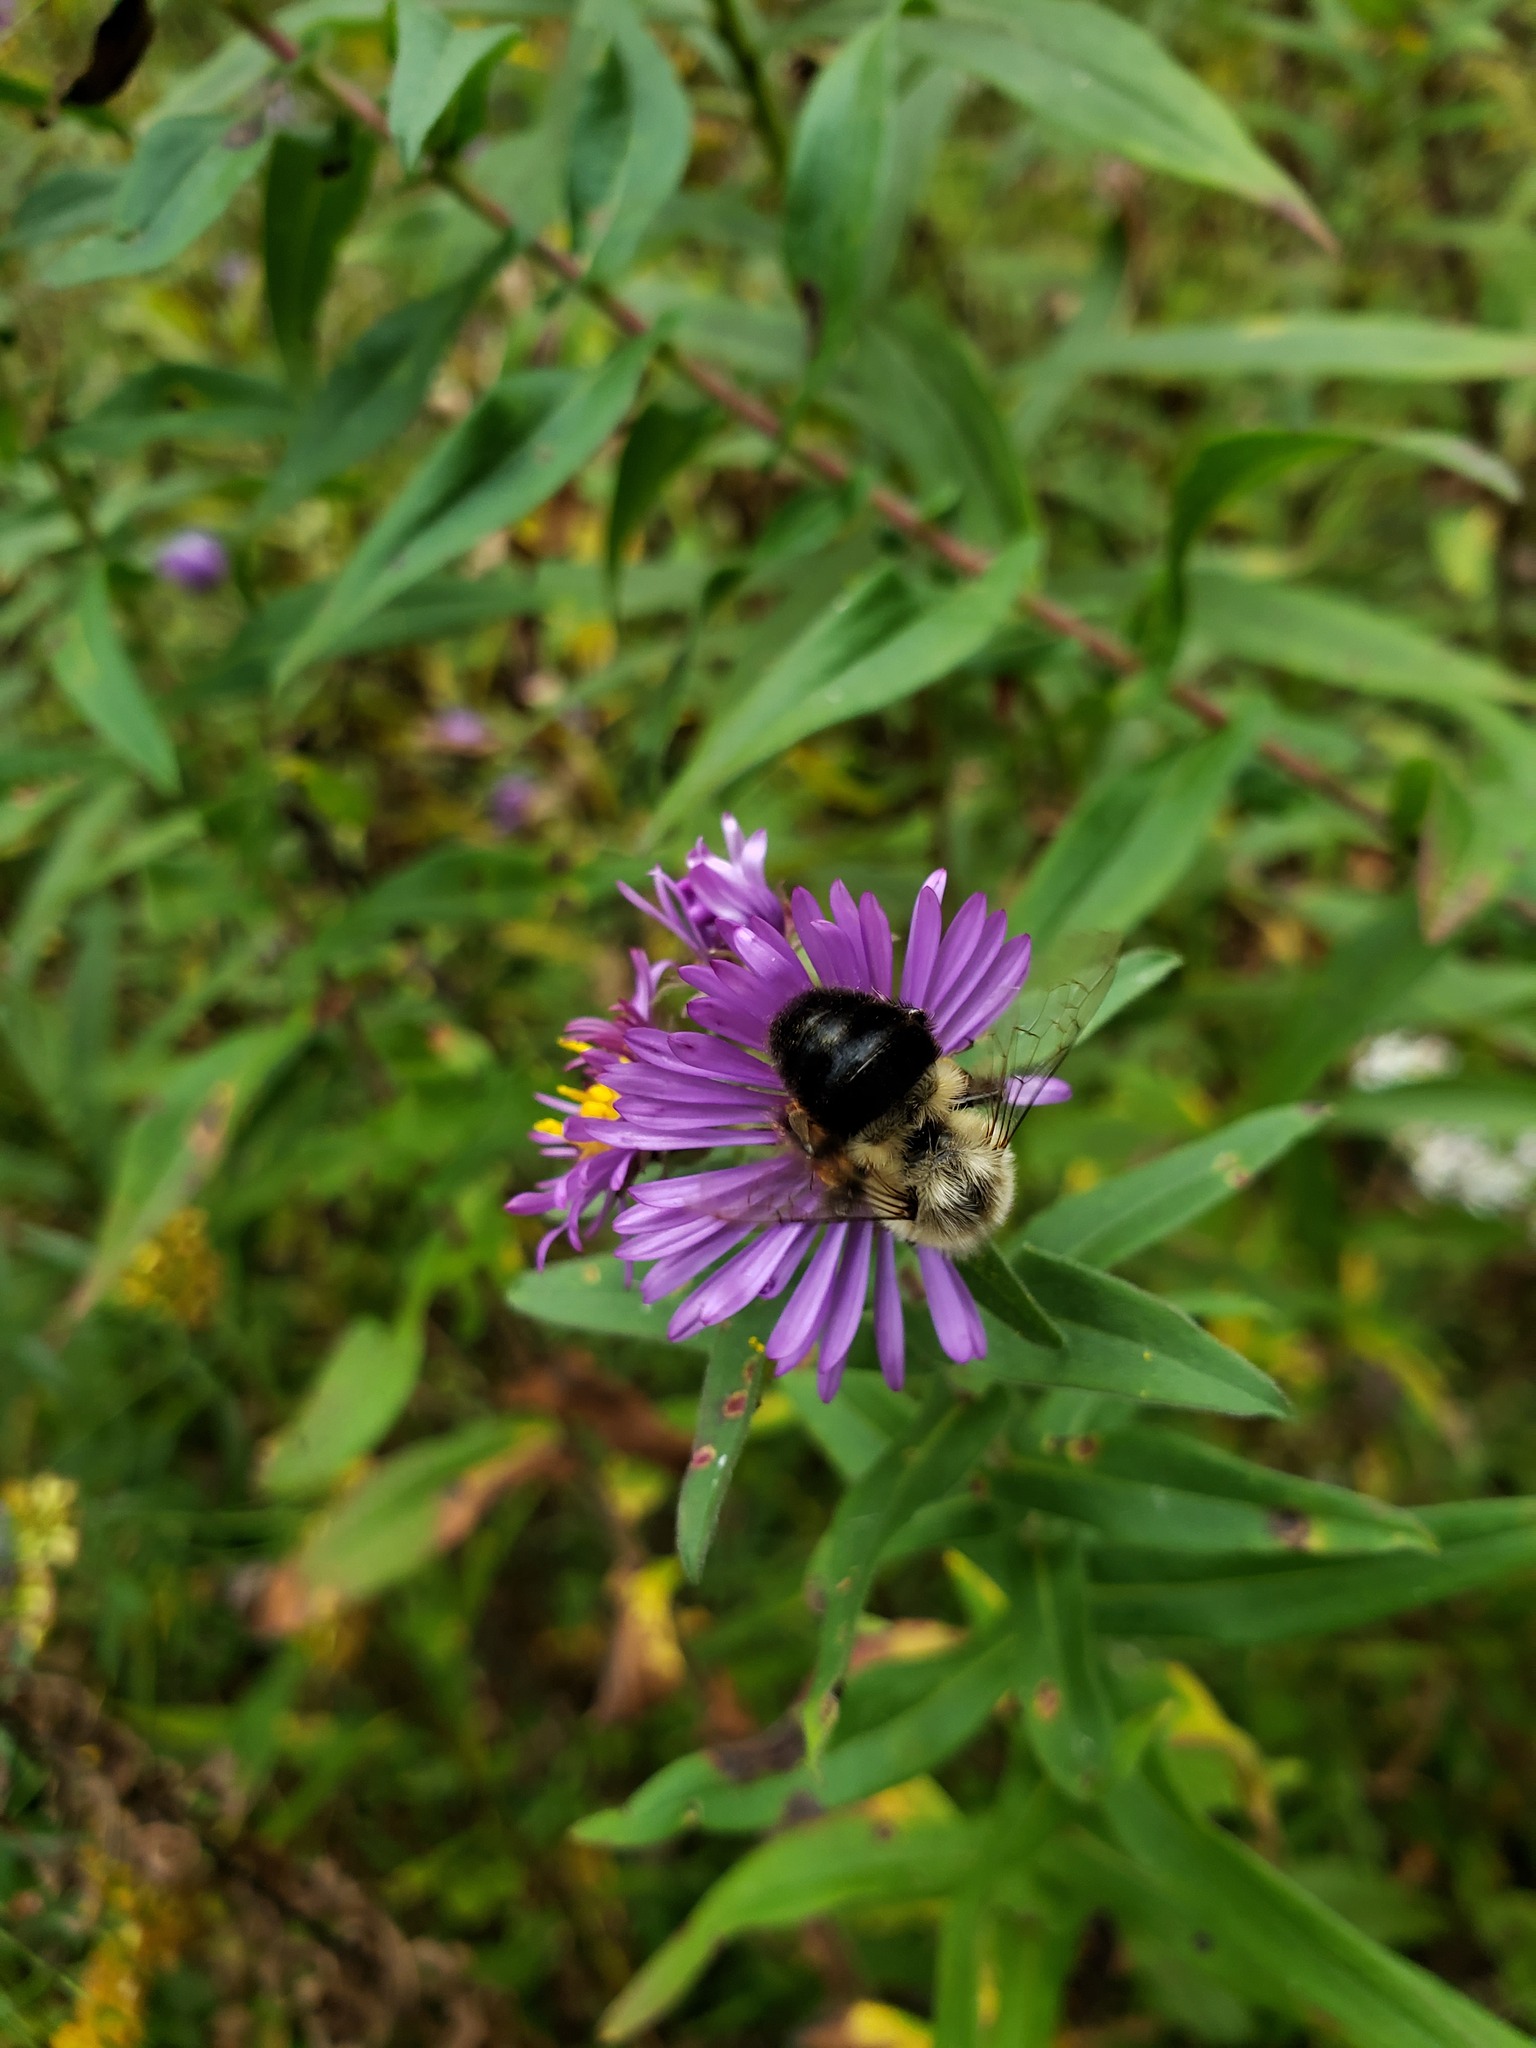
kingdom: Animalia
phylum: Arthropoda
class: Insecta
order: Hymenoptera
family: Apidae
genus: Bombus
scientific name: Bombus impatiens
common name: Common eastern bumble bee
